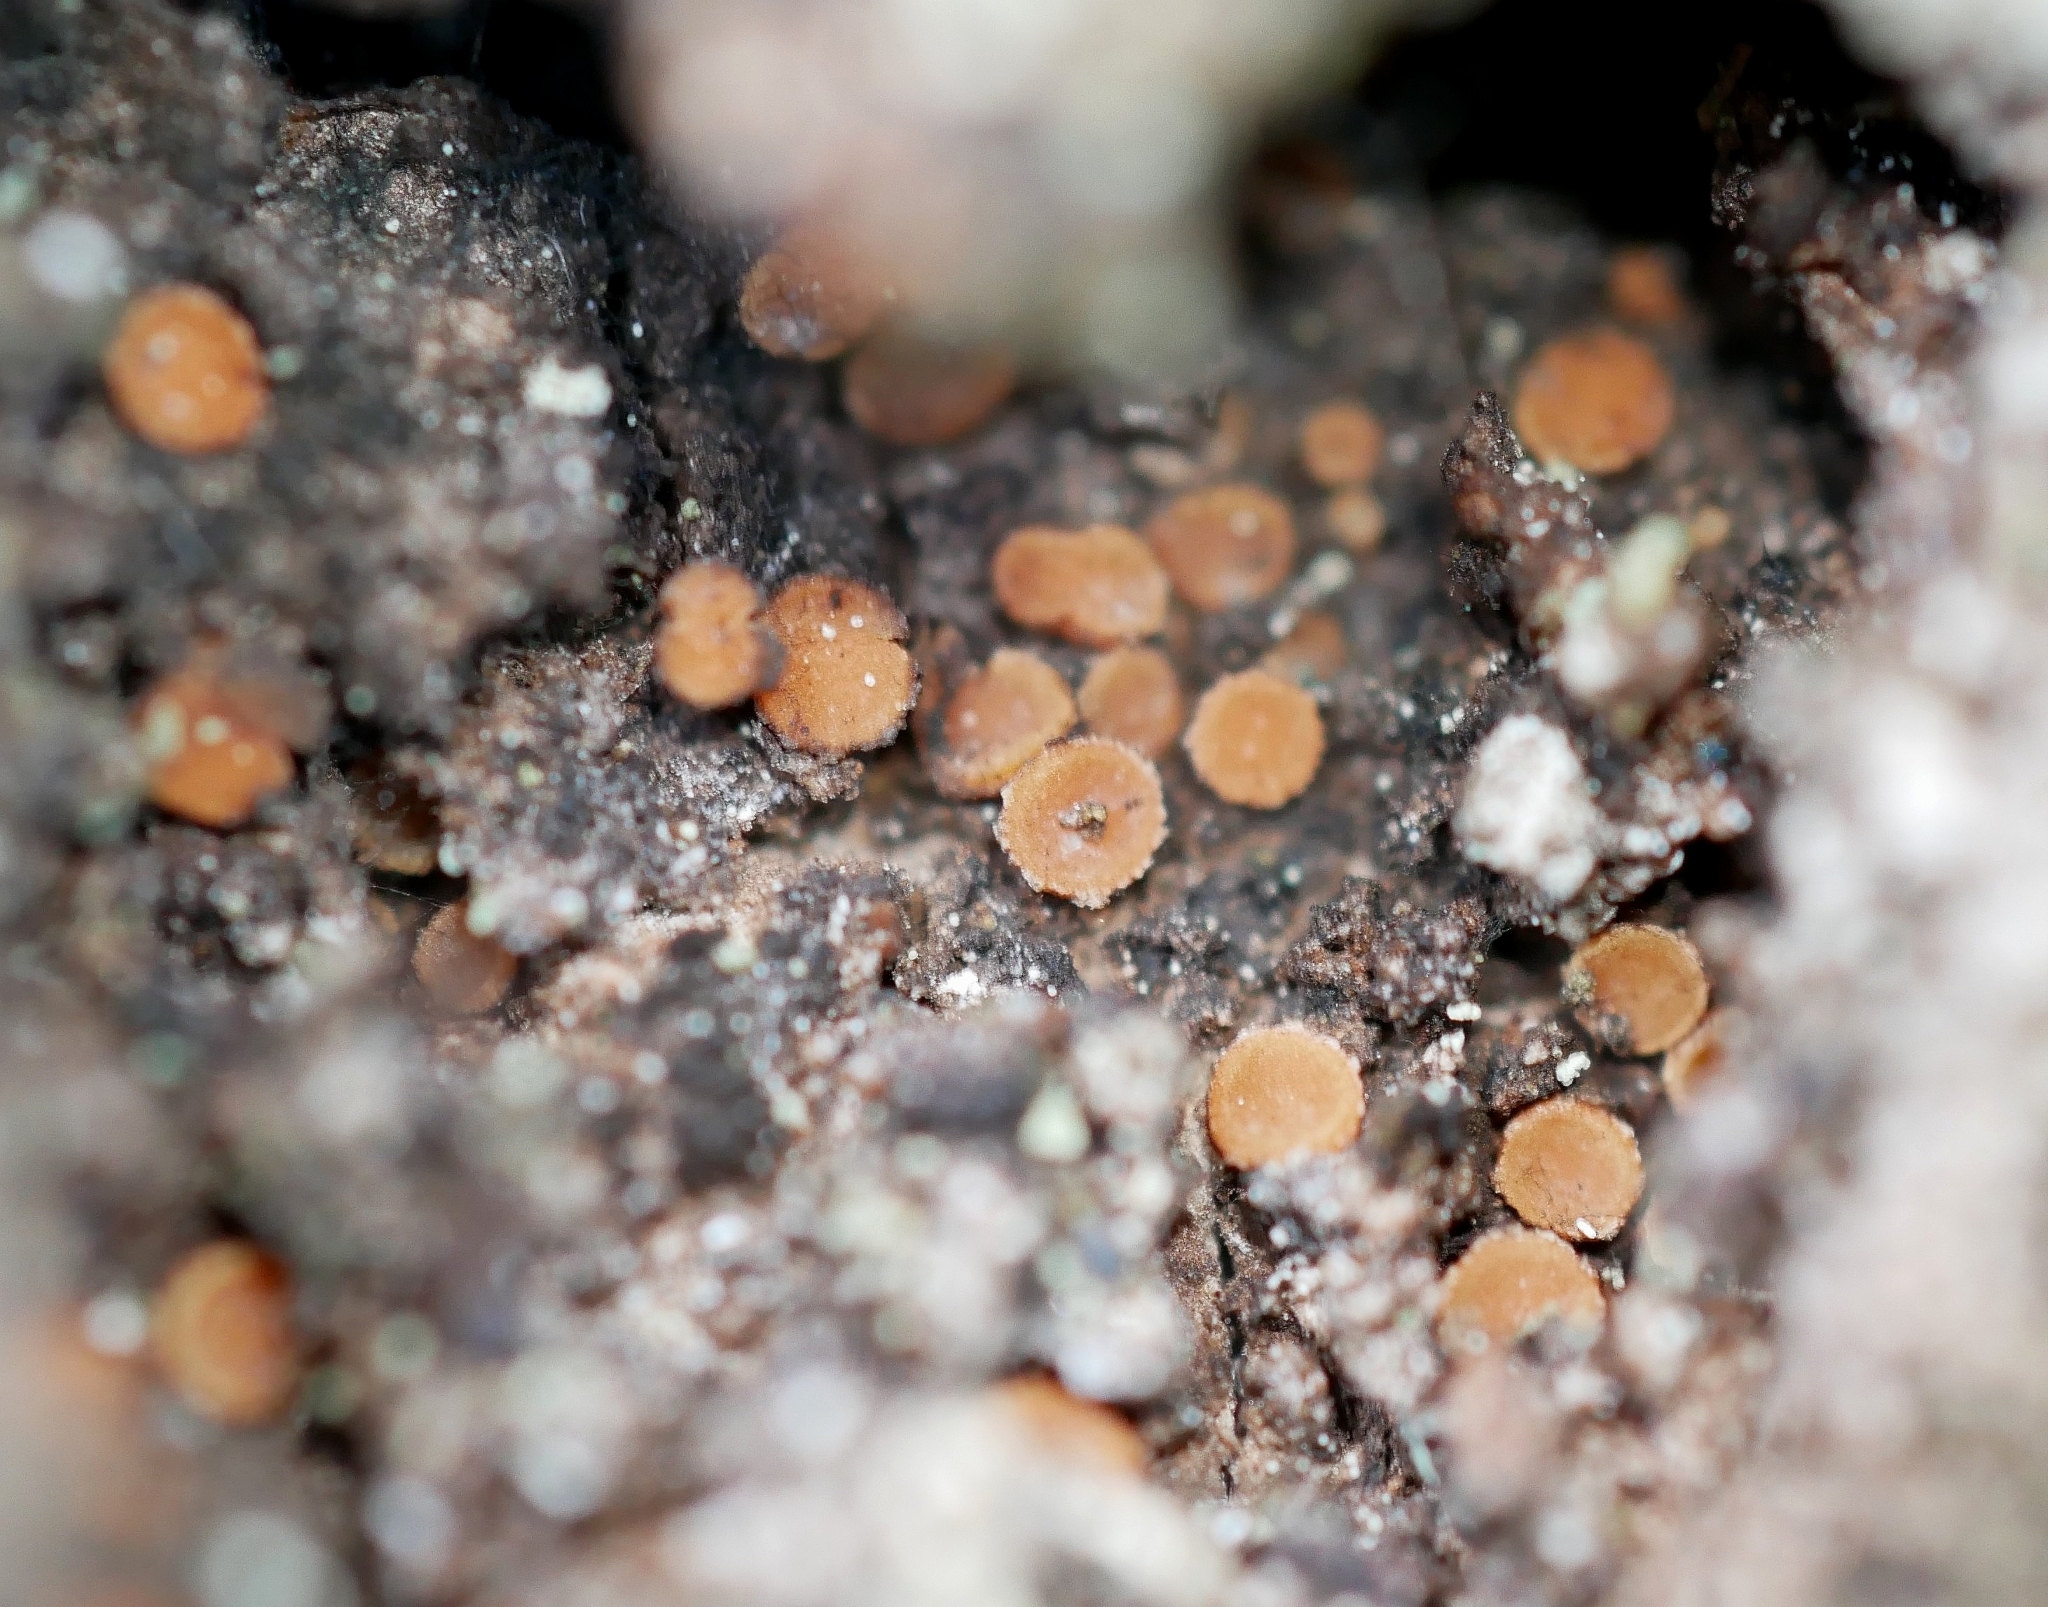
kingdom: Fungi
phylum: Ascomycota
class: Sareomycetes
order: Sareales
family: Sareaceae
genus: Sarea
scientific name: Sarea resinae
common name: Sarea lichen
